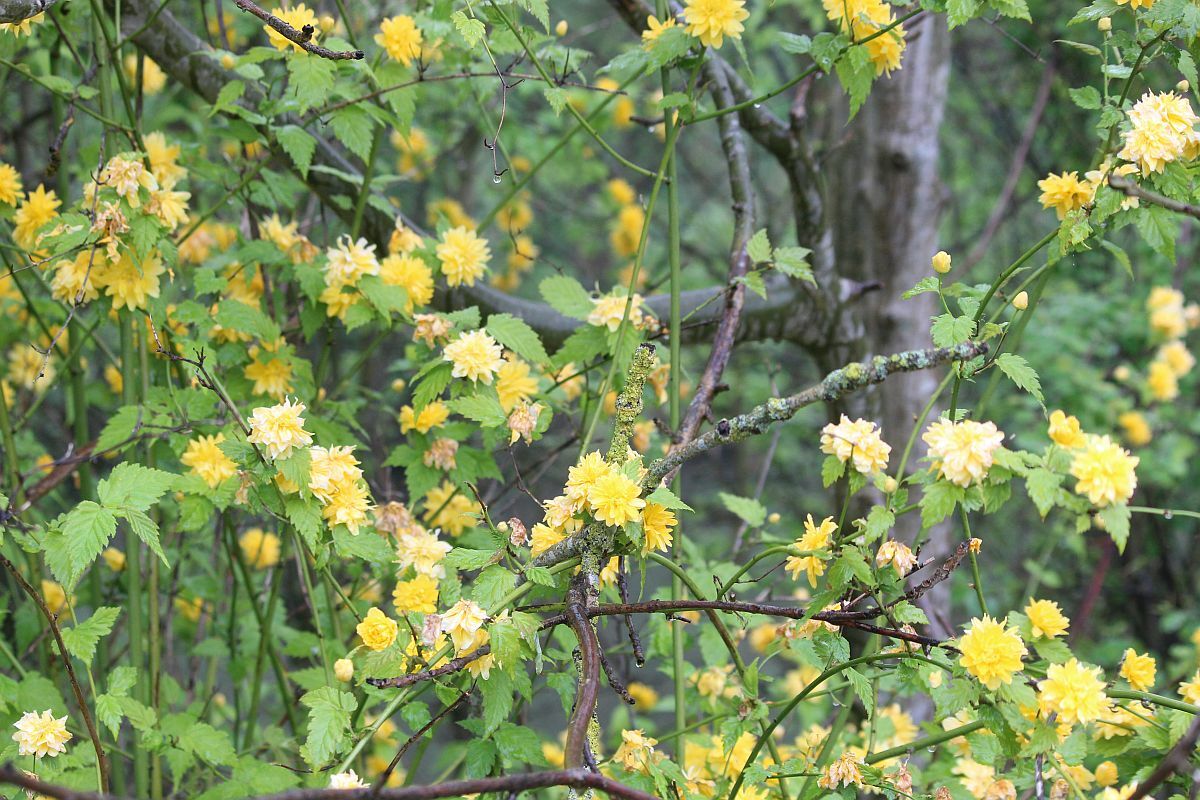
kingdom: Plantae
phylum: Tracheophyta
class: Magnoliopsida
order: Rosales
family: Rosaceae
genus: Kerria
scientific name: Kerria japonica
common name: Japanese kerria
